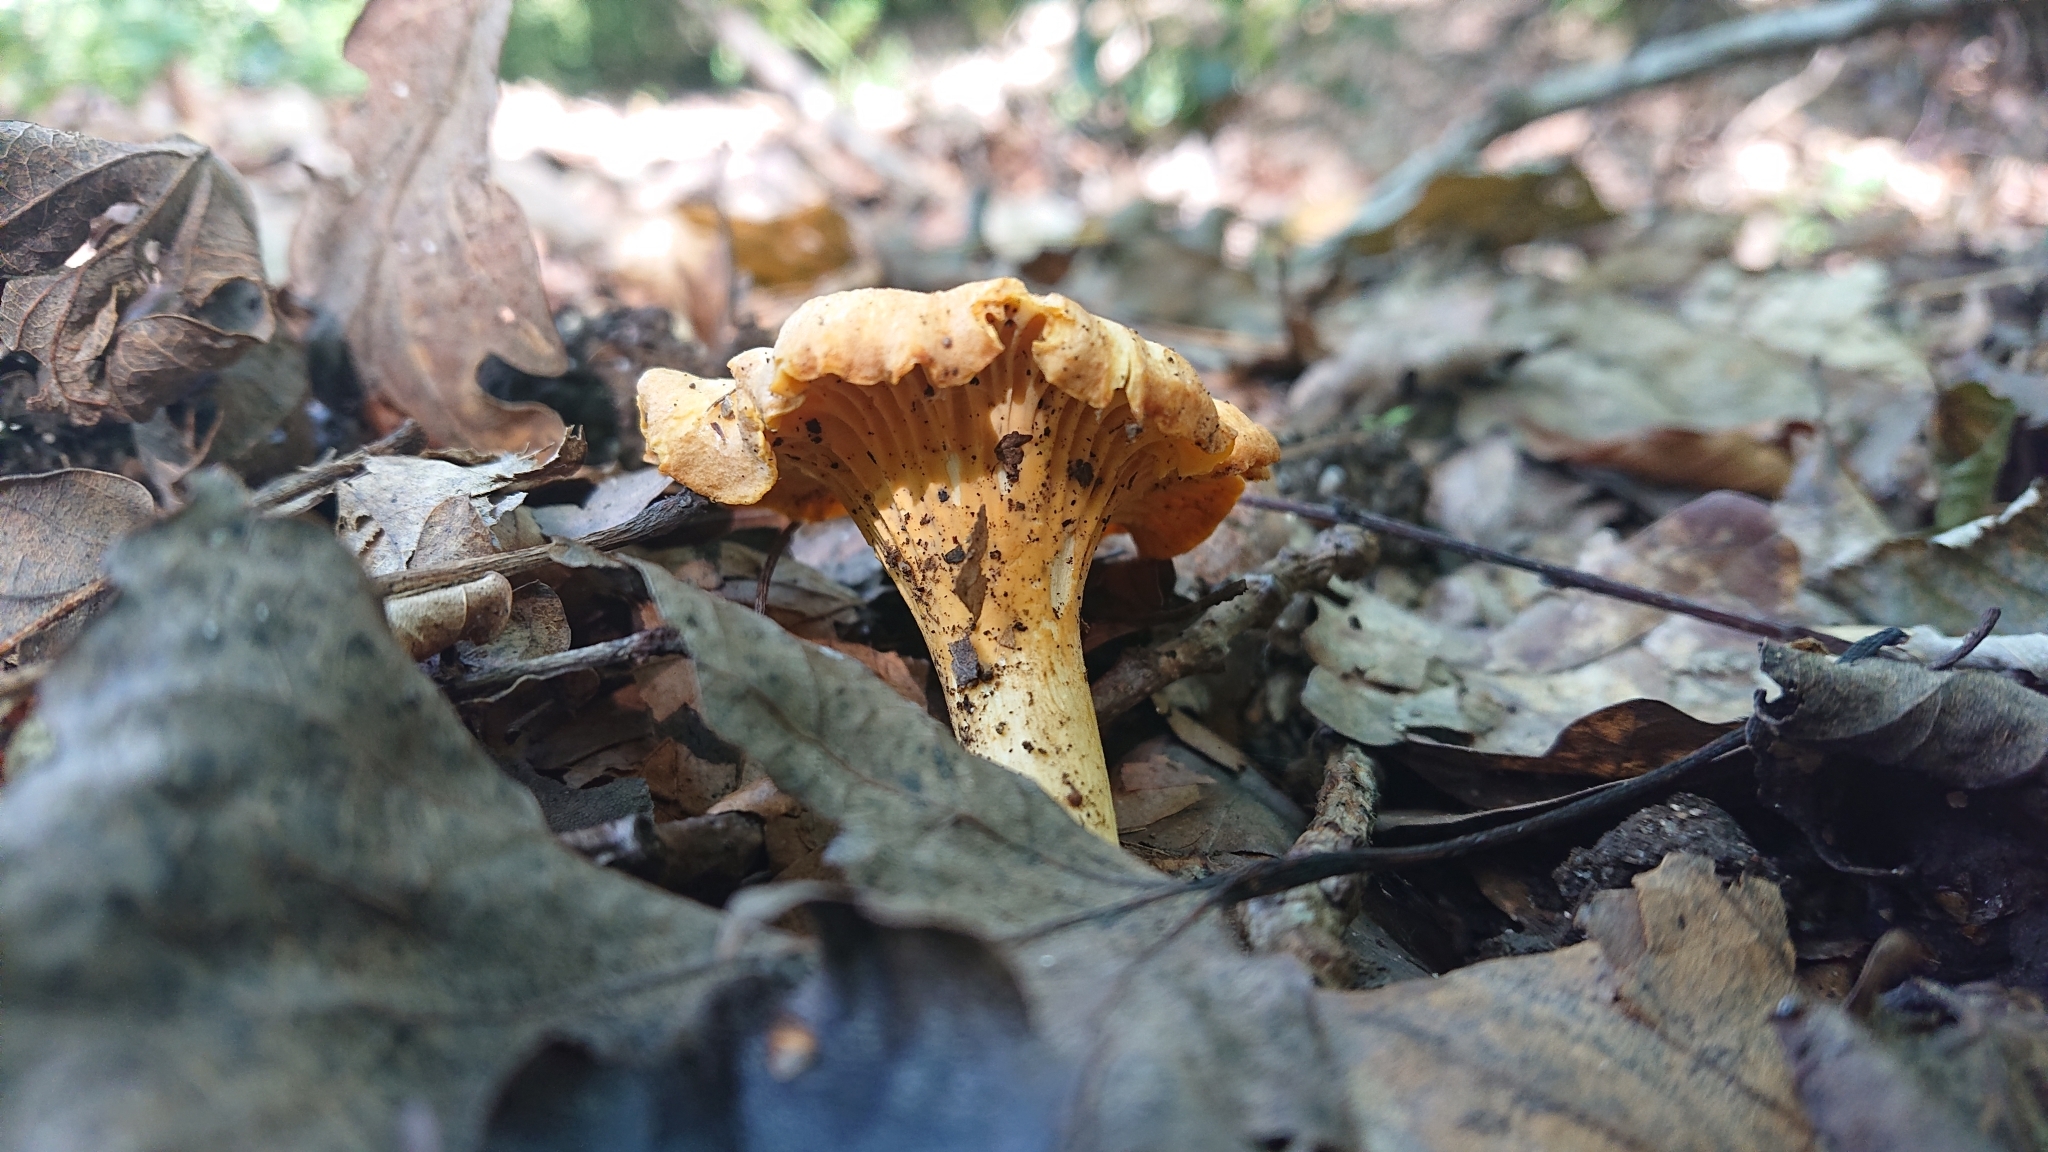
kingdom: Fungi
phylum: Basidiomycota
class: Agaricomycetes
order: Cantharellales
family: Hydnaceae
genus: Cantharellus
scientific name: Cantharellus cibarius
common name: Chanterelle
